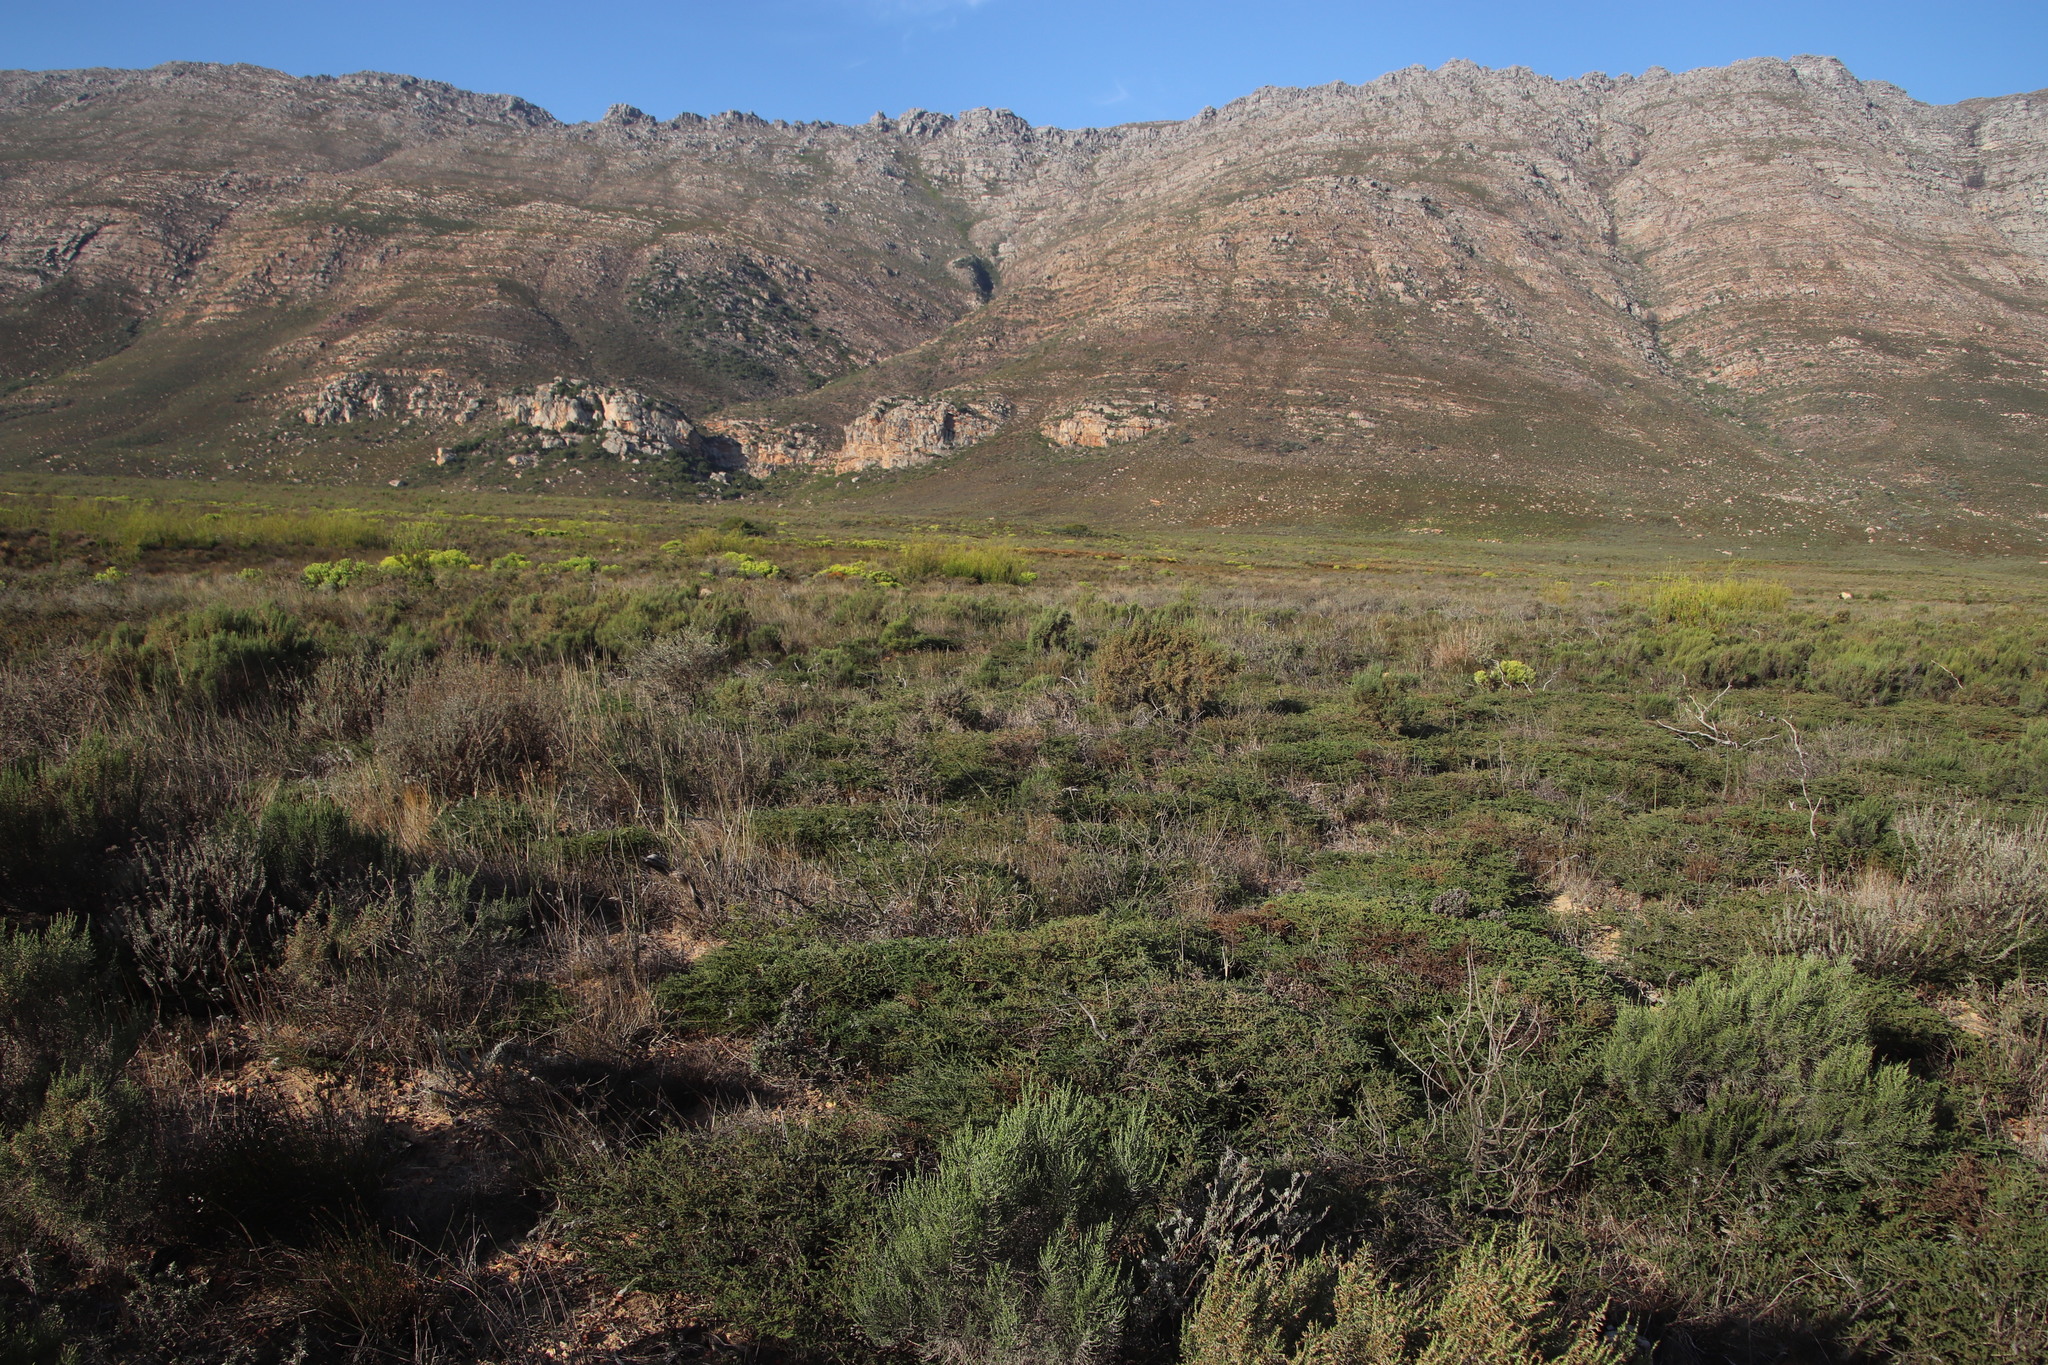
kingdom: Plantae
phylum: Tracheophyta
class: Magnoliopsida
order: Fabales
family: Fabaceae
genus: Aspalathus
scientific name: Aspalathus wurmbeana
